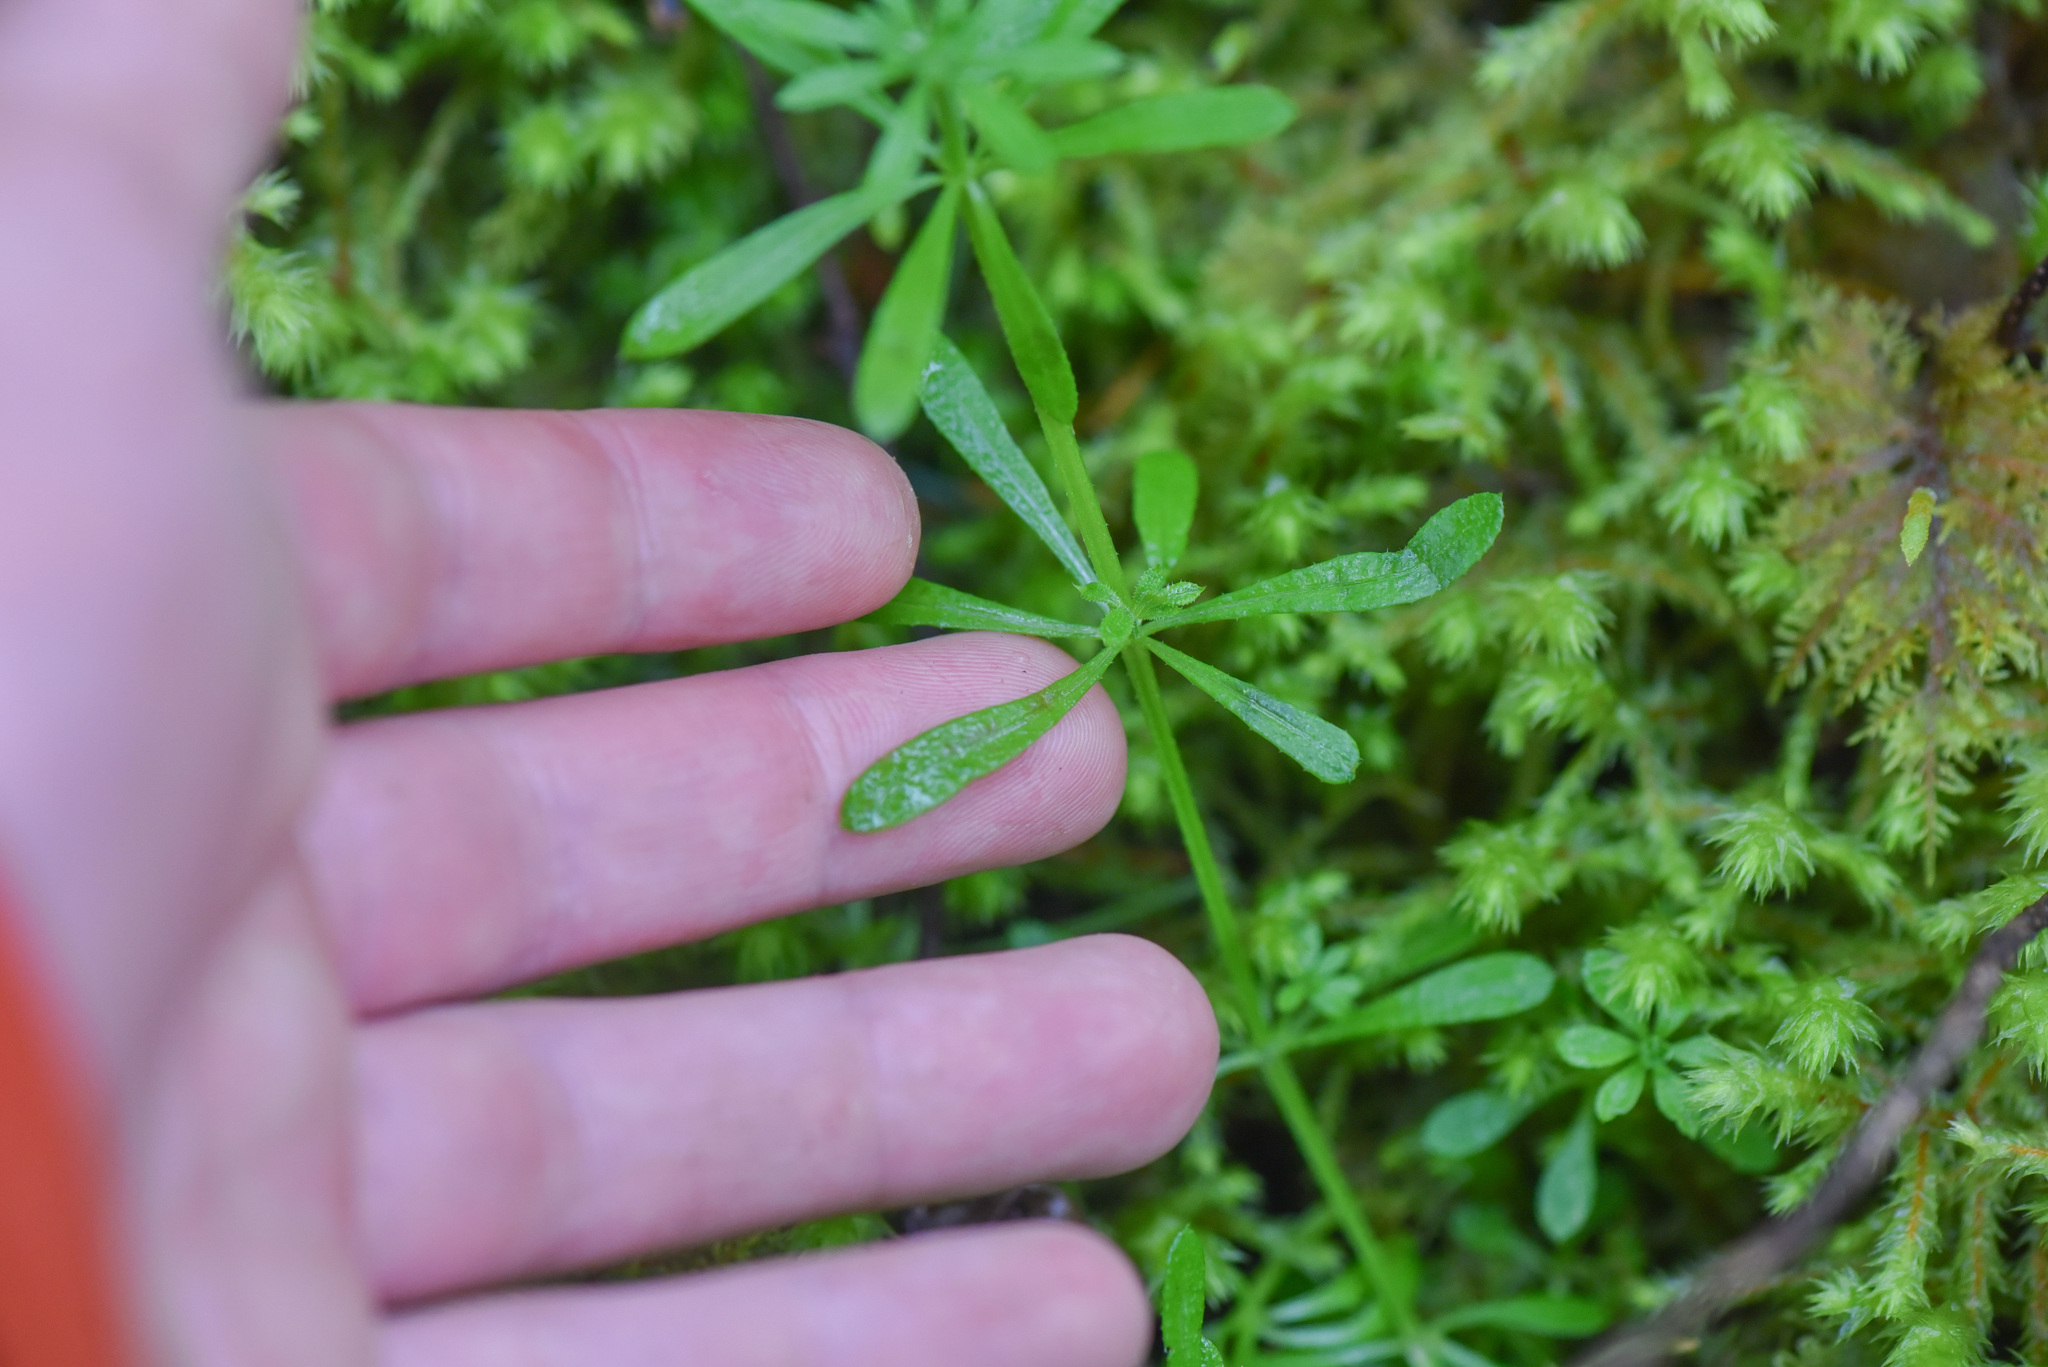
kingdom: Plantae
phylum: Tracheophyta
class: Magnoliopsida
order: Gentianales
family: Rubiaceae
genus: Galium
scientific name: Galium aparine
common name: Cleavers
